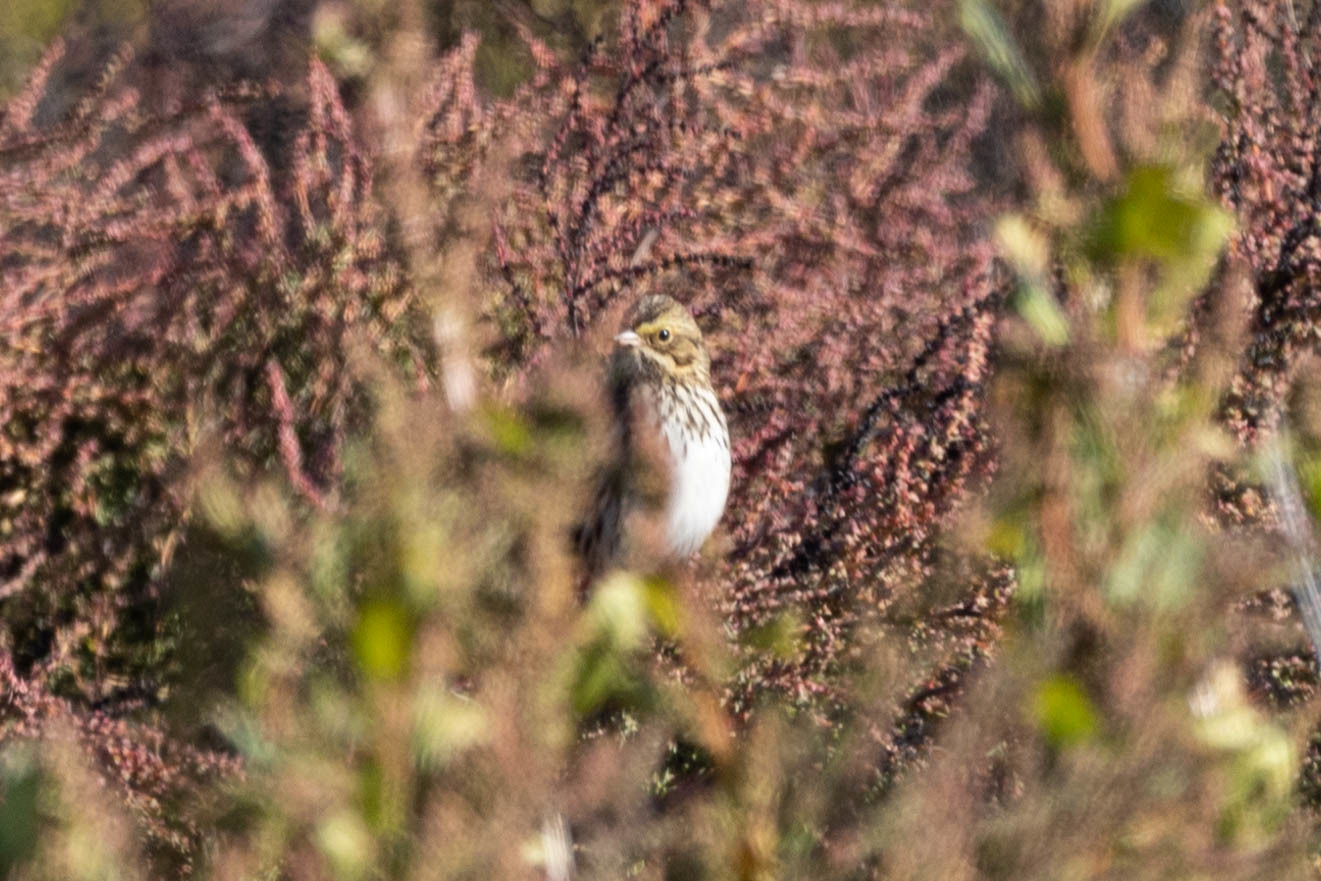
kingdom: Animalia
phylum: Chordata
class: Aves
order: Passeriformes
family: Passerellidae
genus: Passerculus
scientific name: Passerculus sandwichensis
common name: Savannah sparrow
